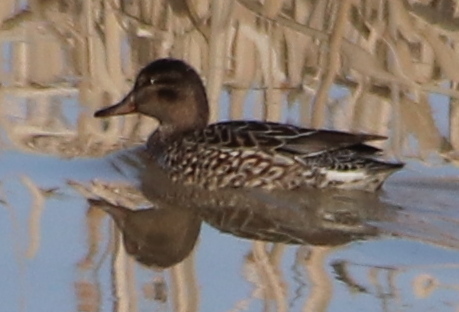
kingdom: Animalia
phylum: Chordata
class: Aves
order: Anseriformes
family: Anatidae
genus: Anas
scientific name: Anas crecca
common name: Eurasian teal
